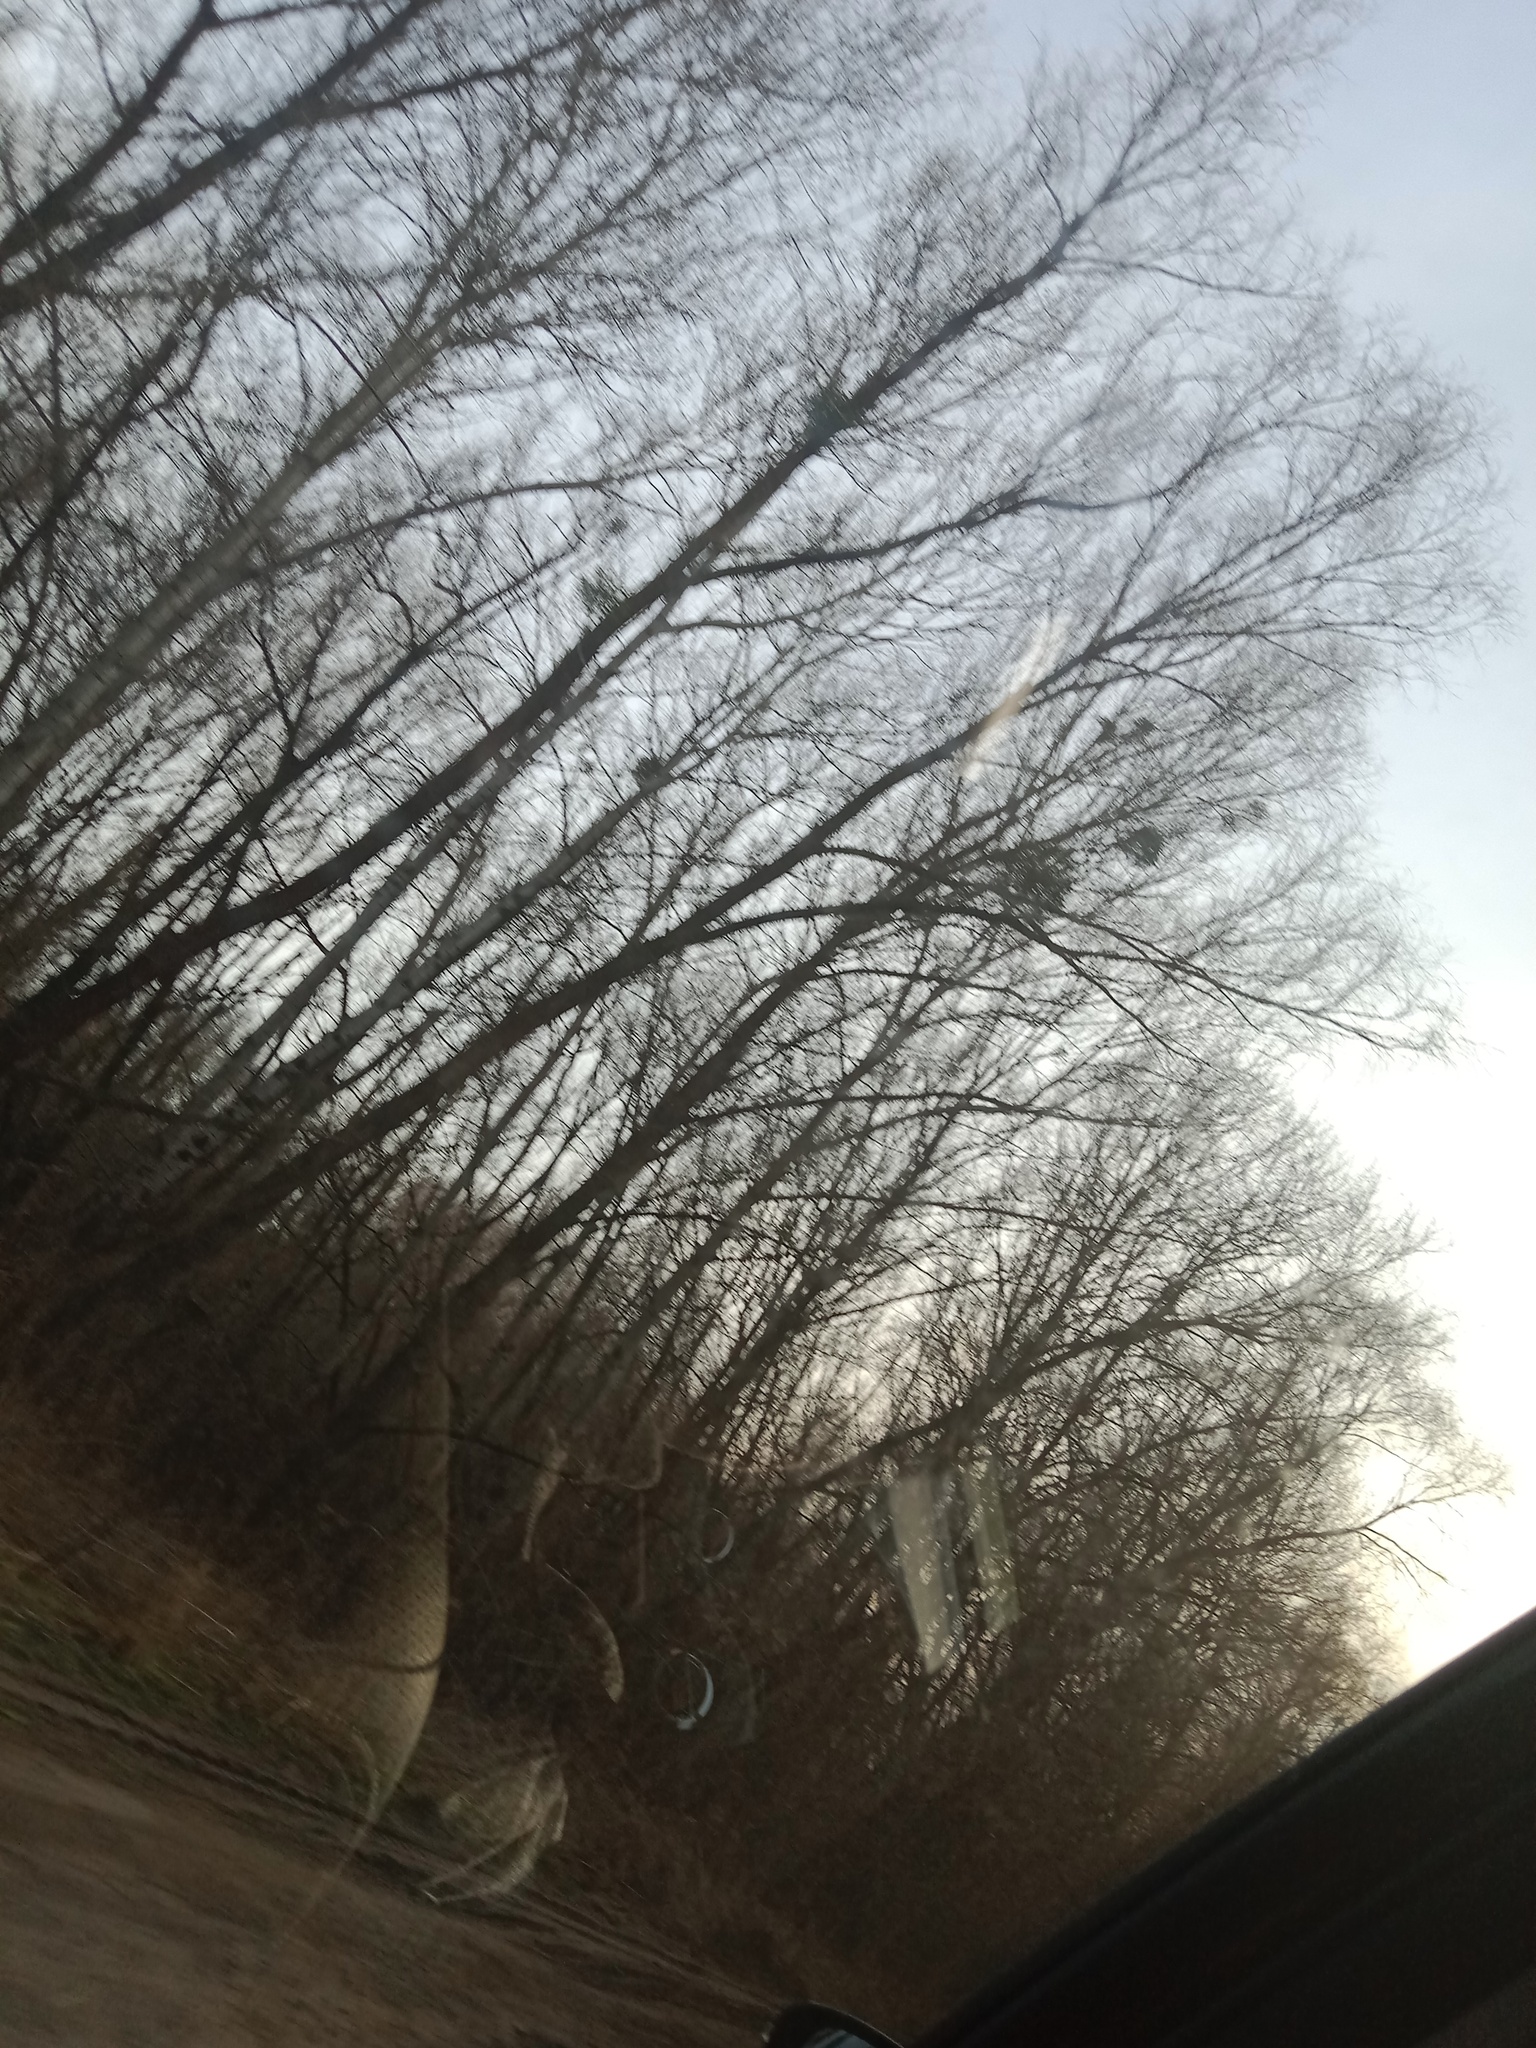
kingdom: Plantae
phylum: Tracheophyta
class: Magnoliopsida
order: Santalales
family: Viscaceae
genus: Viscum
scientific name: Viscum album
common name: Mistletoe
